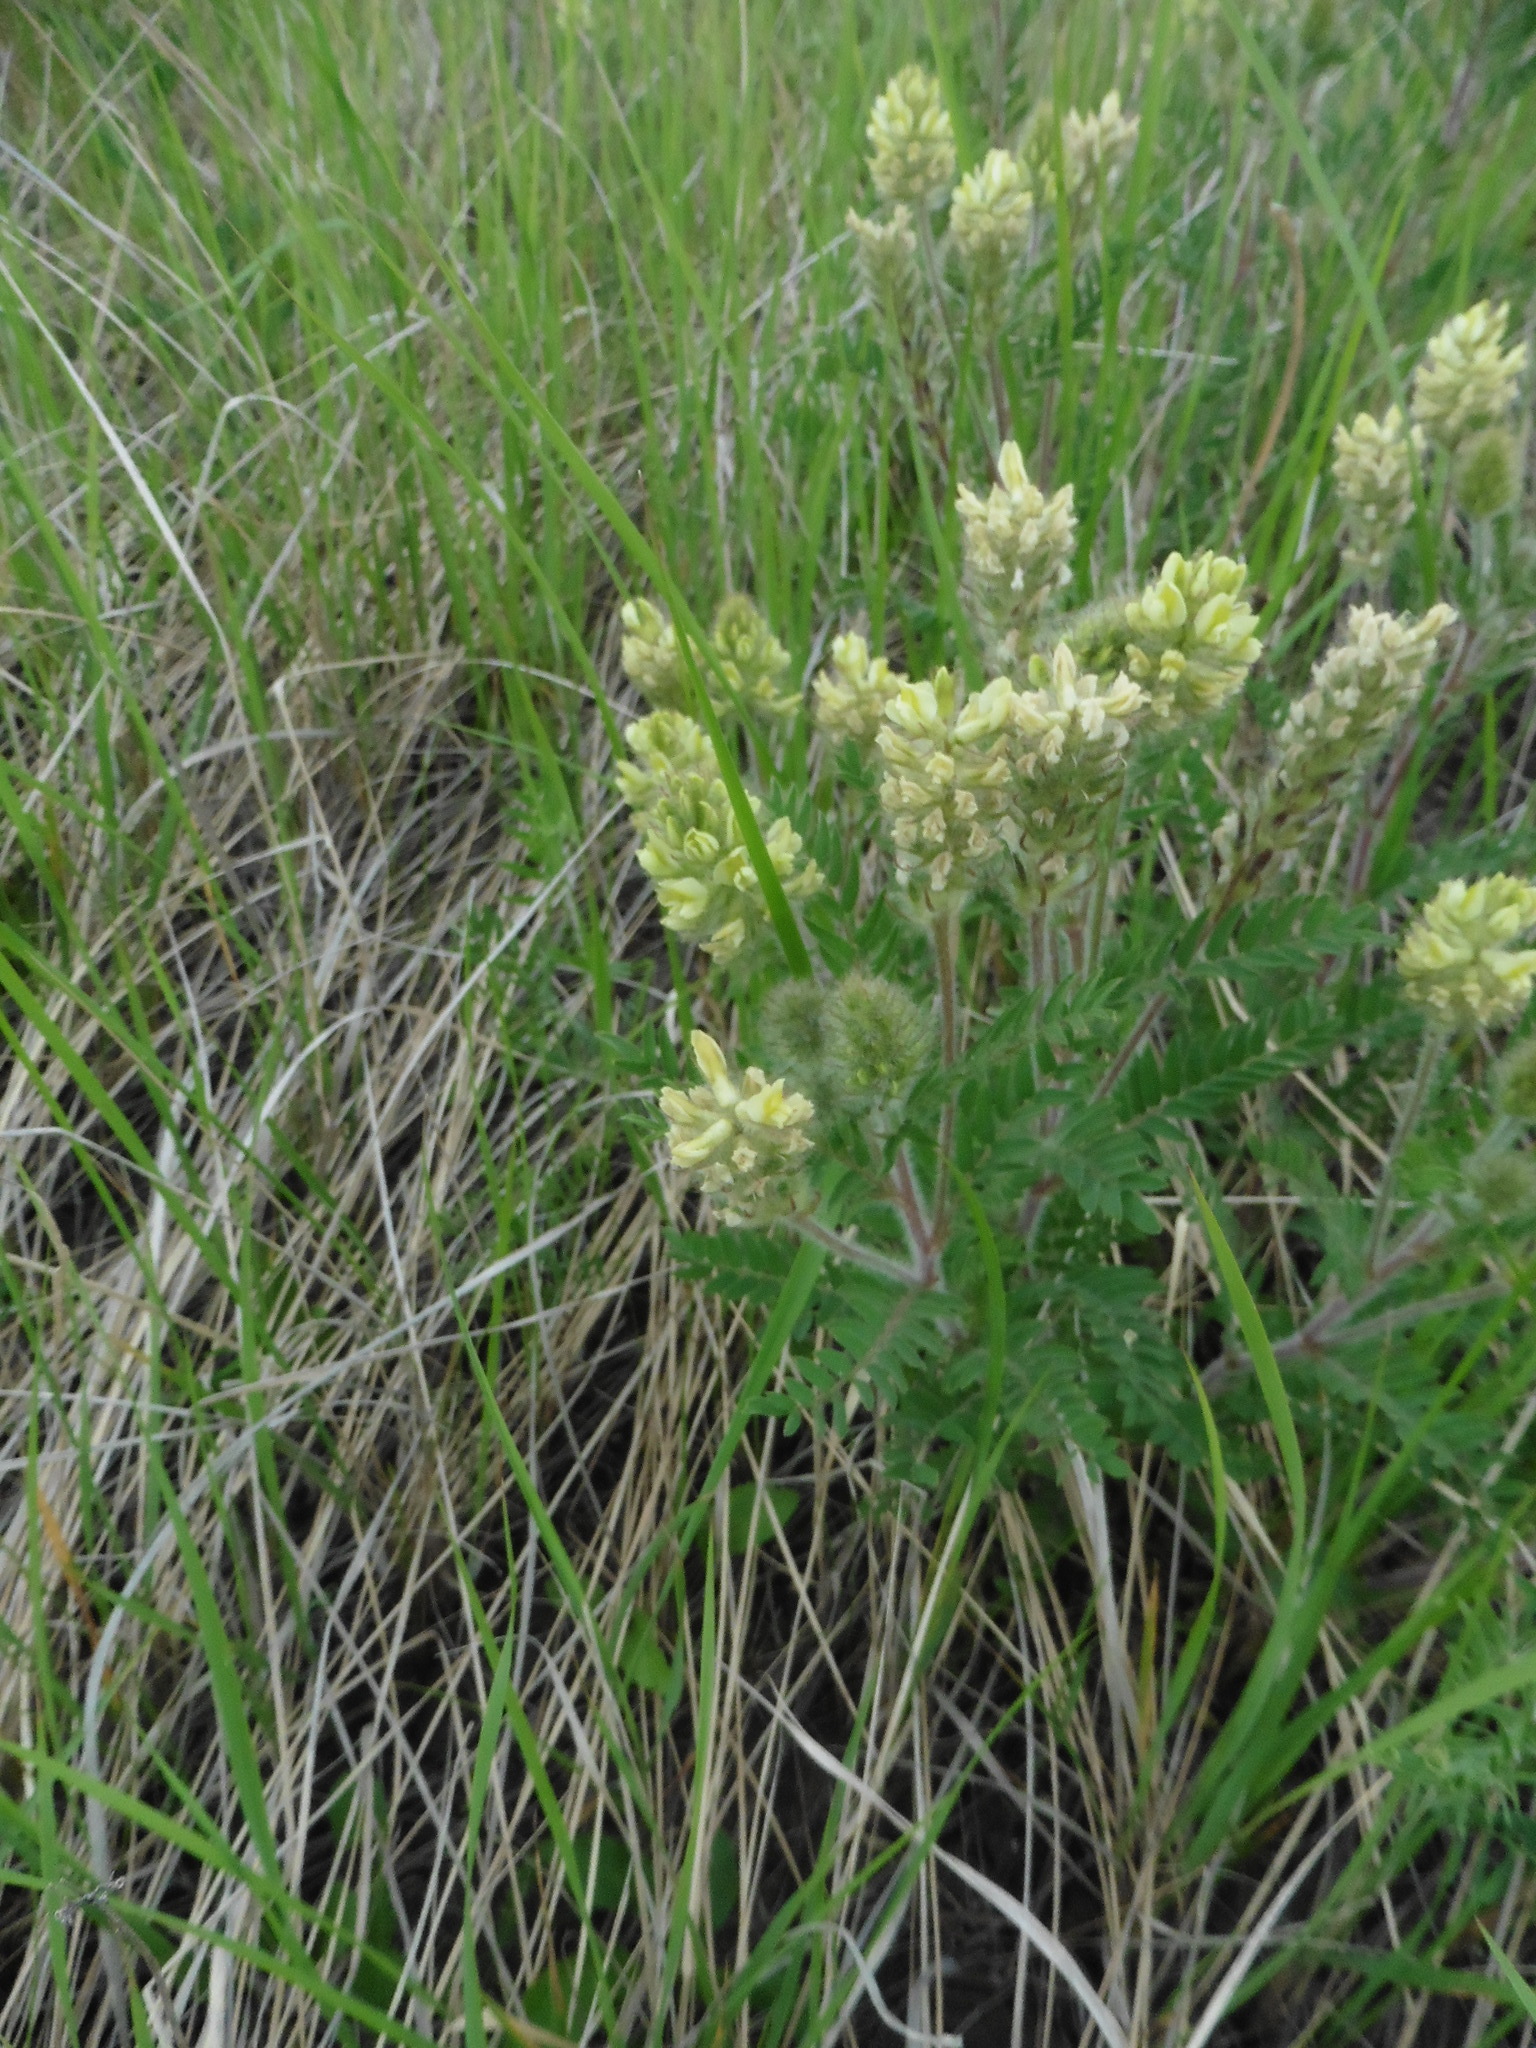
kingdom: Plantae
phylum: Tracheophyta
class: Magnoliopsida
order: Fabales
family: Fabaceae
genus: Oxytropis
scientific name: Oxytropis pilosa
